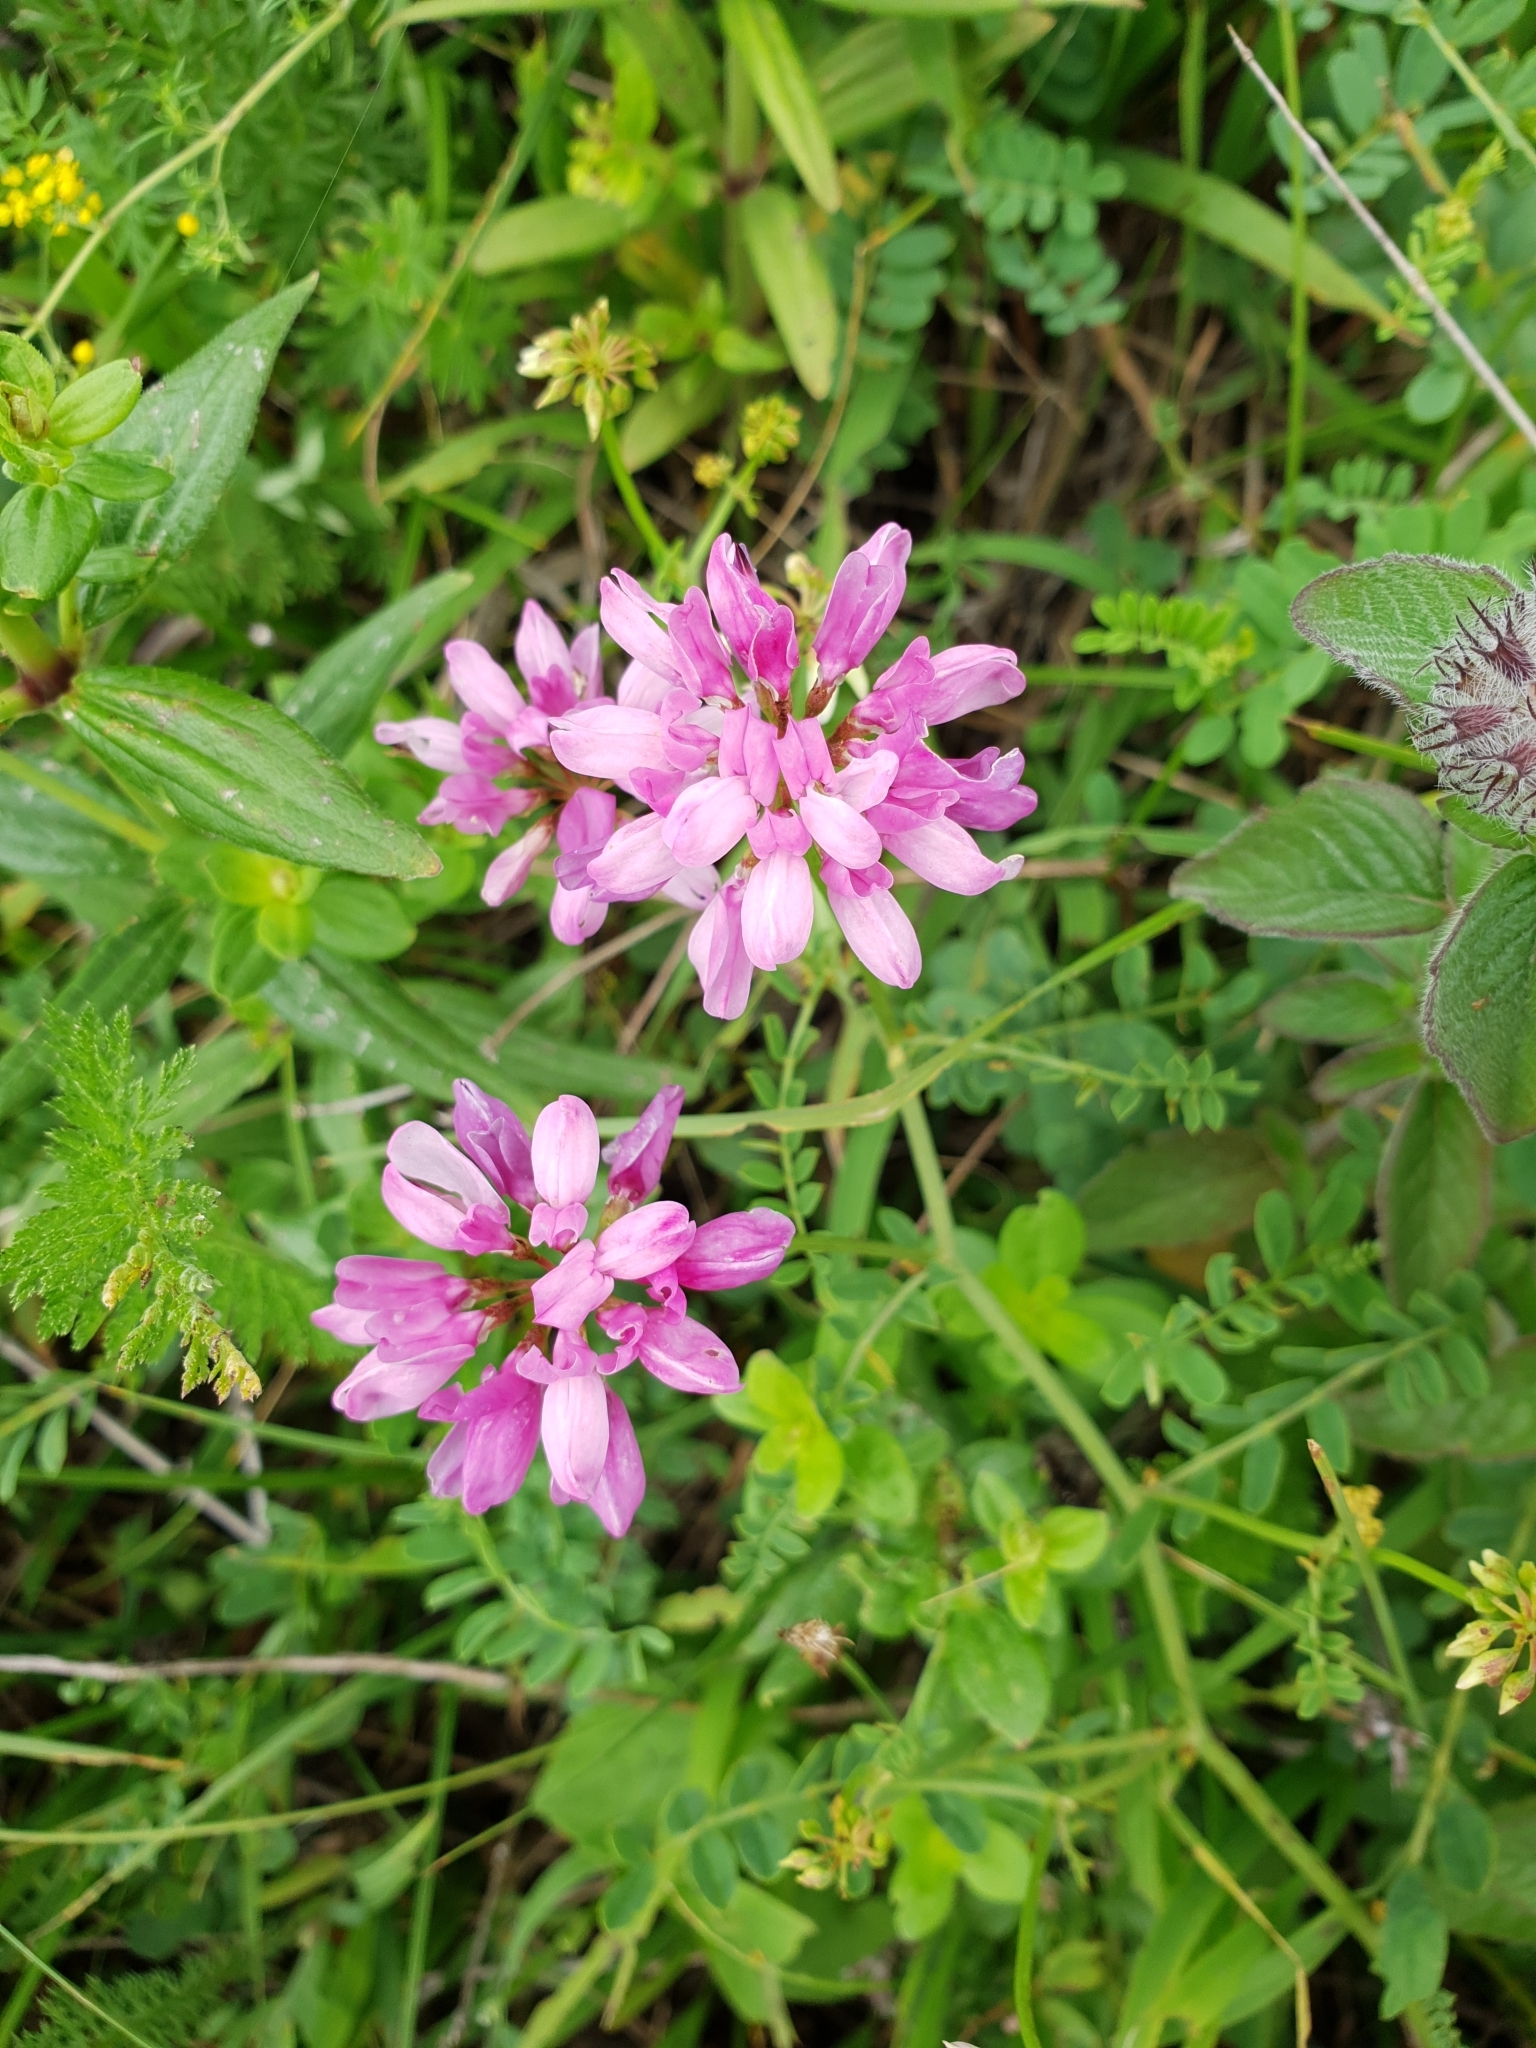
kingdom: Plantae
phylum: Tracheophyta
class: Magnoliopsida
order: Fabales
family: Fabaceae
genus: Coronilla
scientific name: Coronilla varia
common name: Crownvetch
